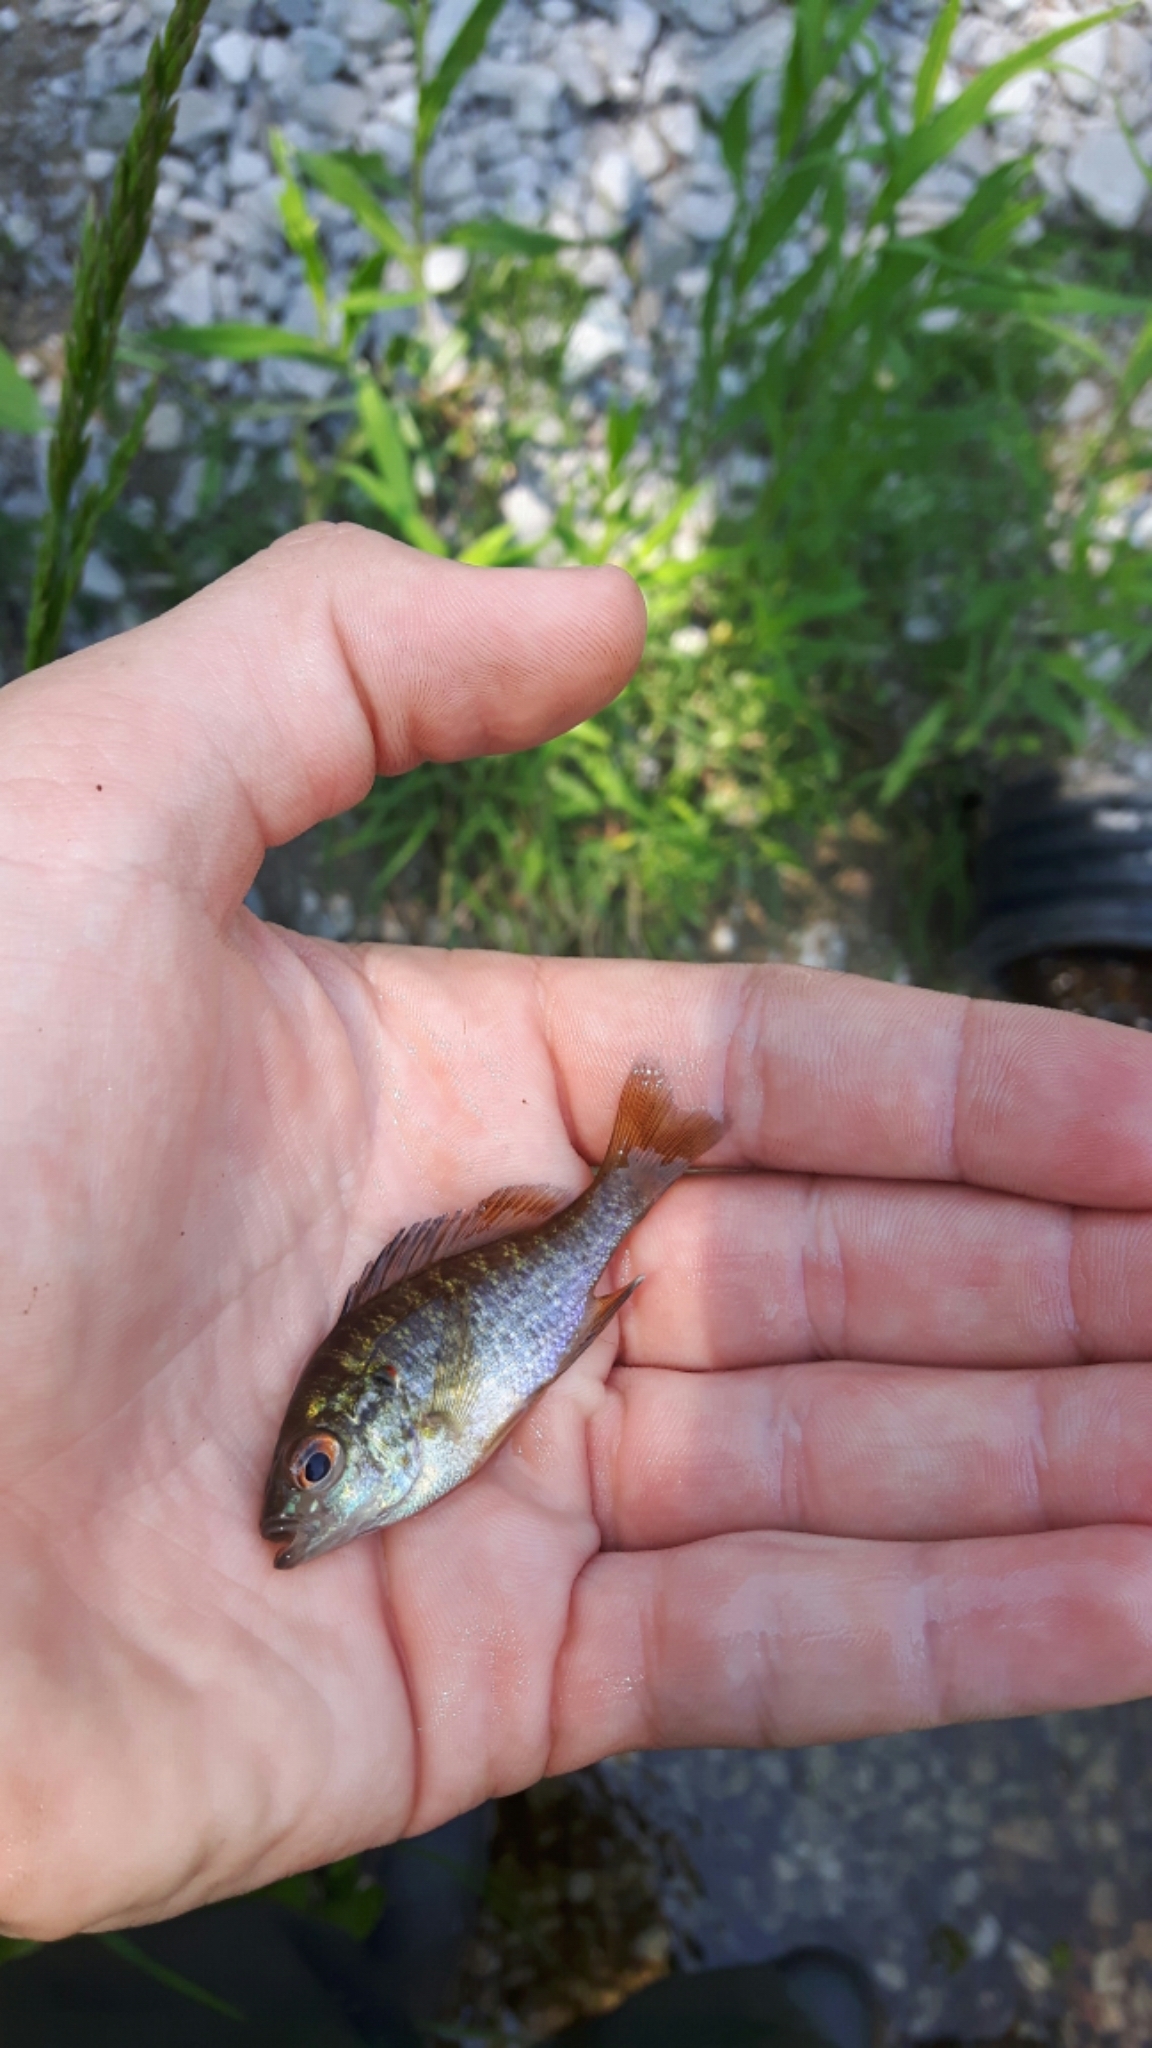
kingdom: Animalia
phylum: Chordata
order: Perciformes
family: Centrarchidae
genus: Lepomis
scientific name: Lepomis gibbosus
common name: Pumpkinseed
